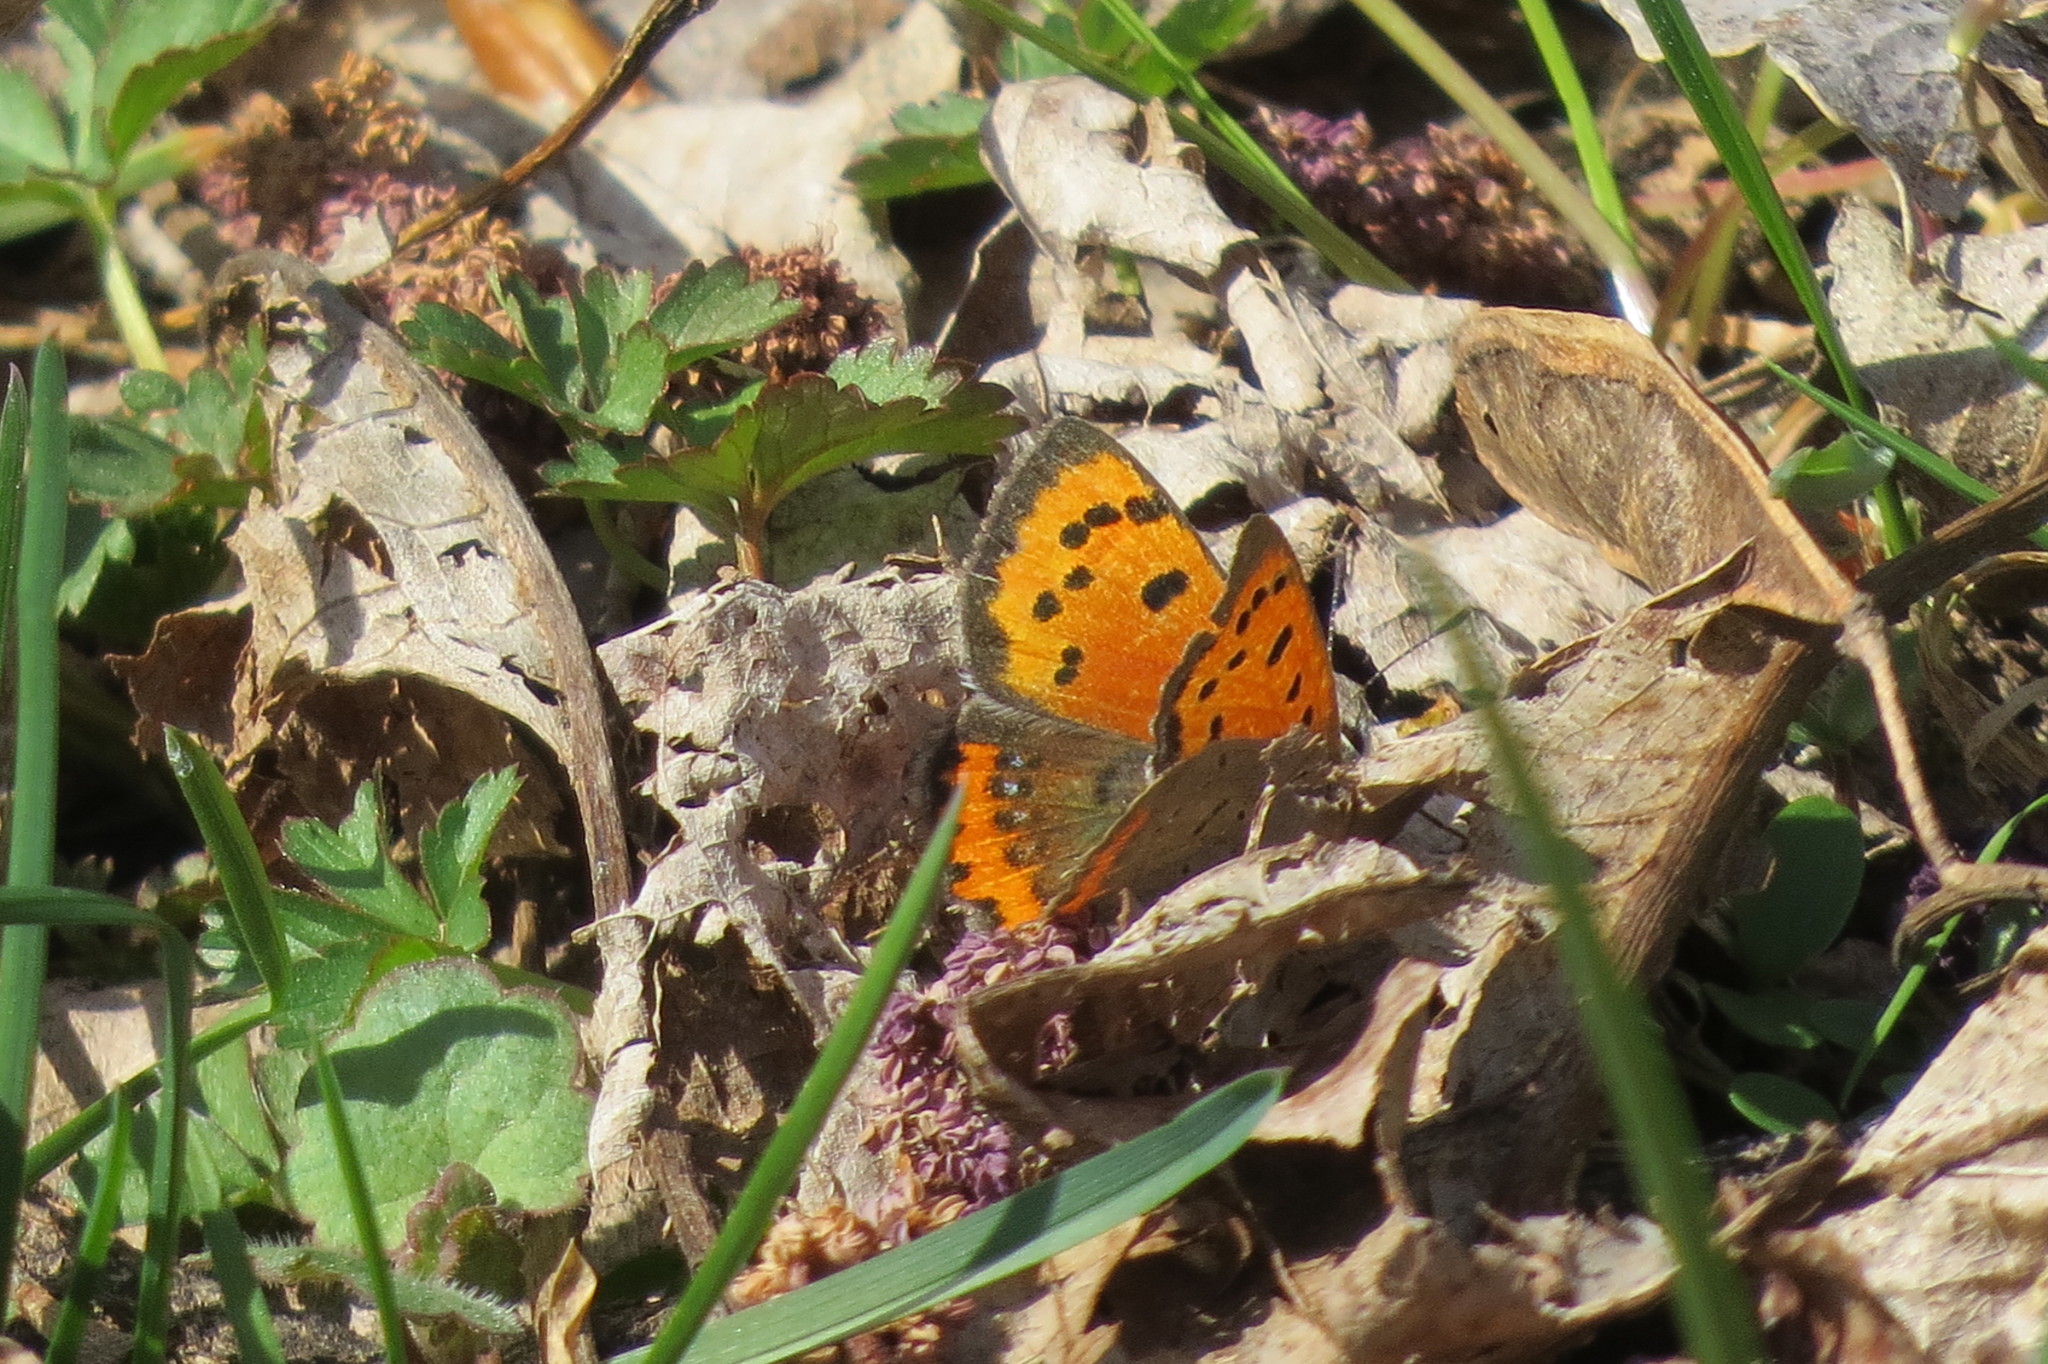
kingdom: Animalia
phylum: Arthropoda
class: Insecta
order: Lepidoptera
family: Lycaenidae
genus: Lycaena
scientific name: Lycaena phlaeas
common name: Small copper
